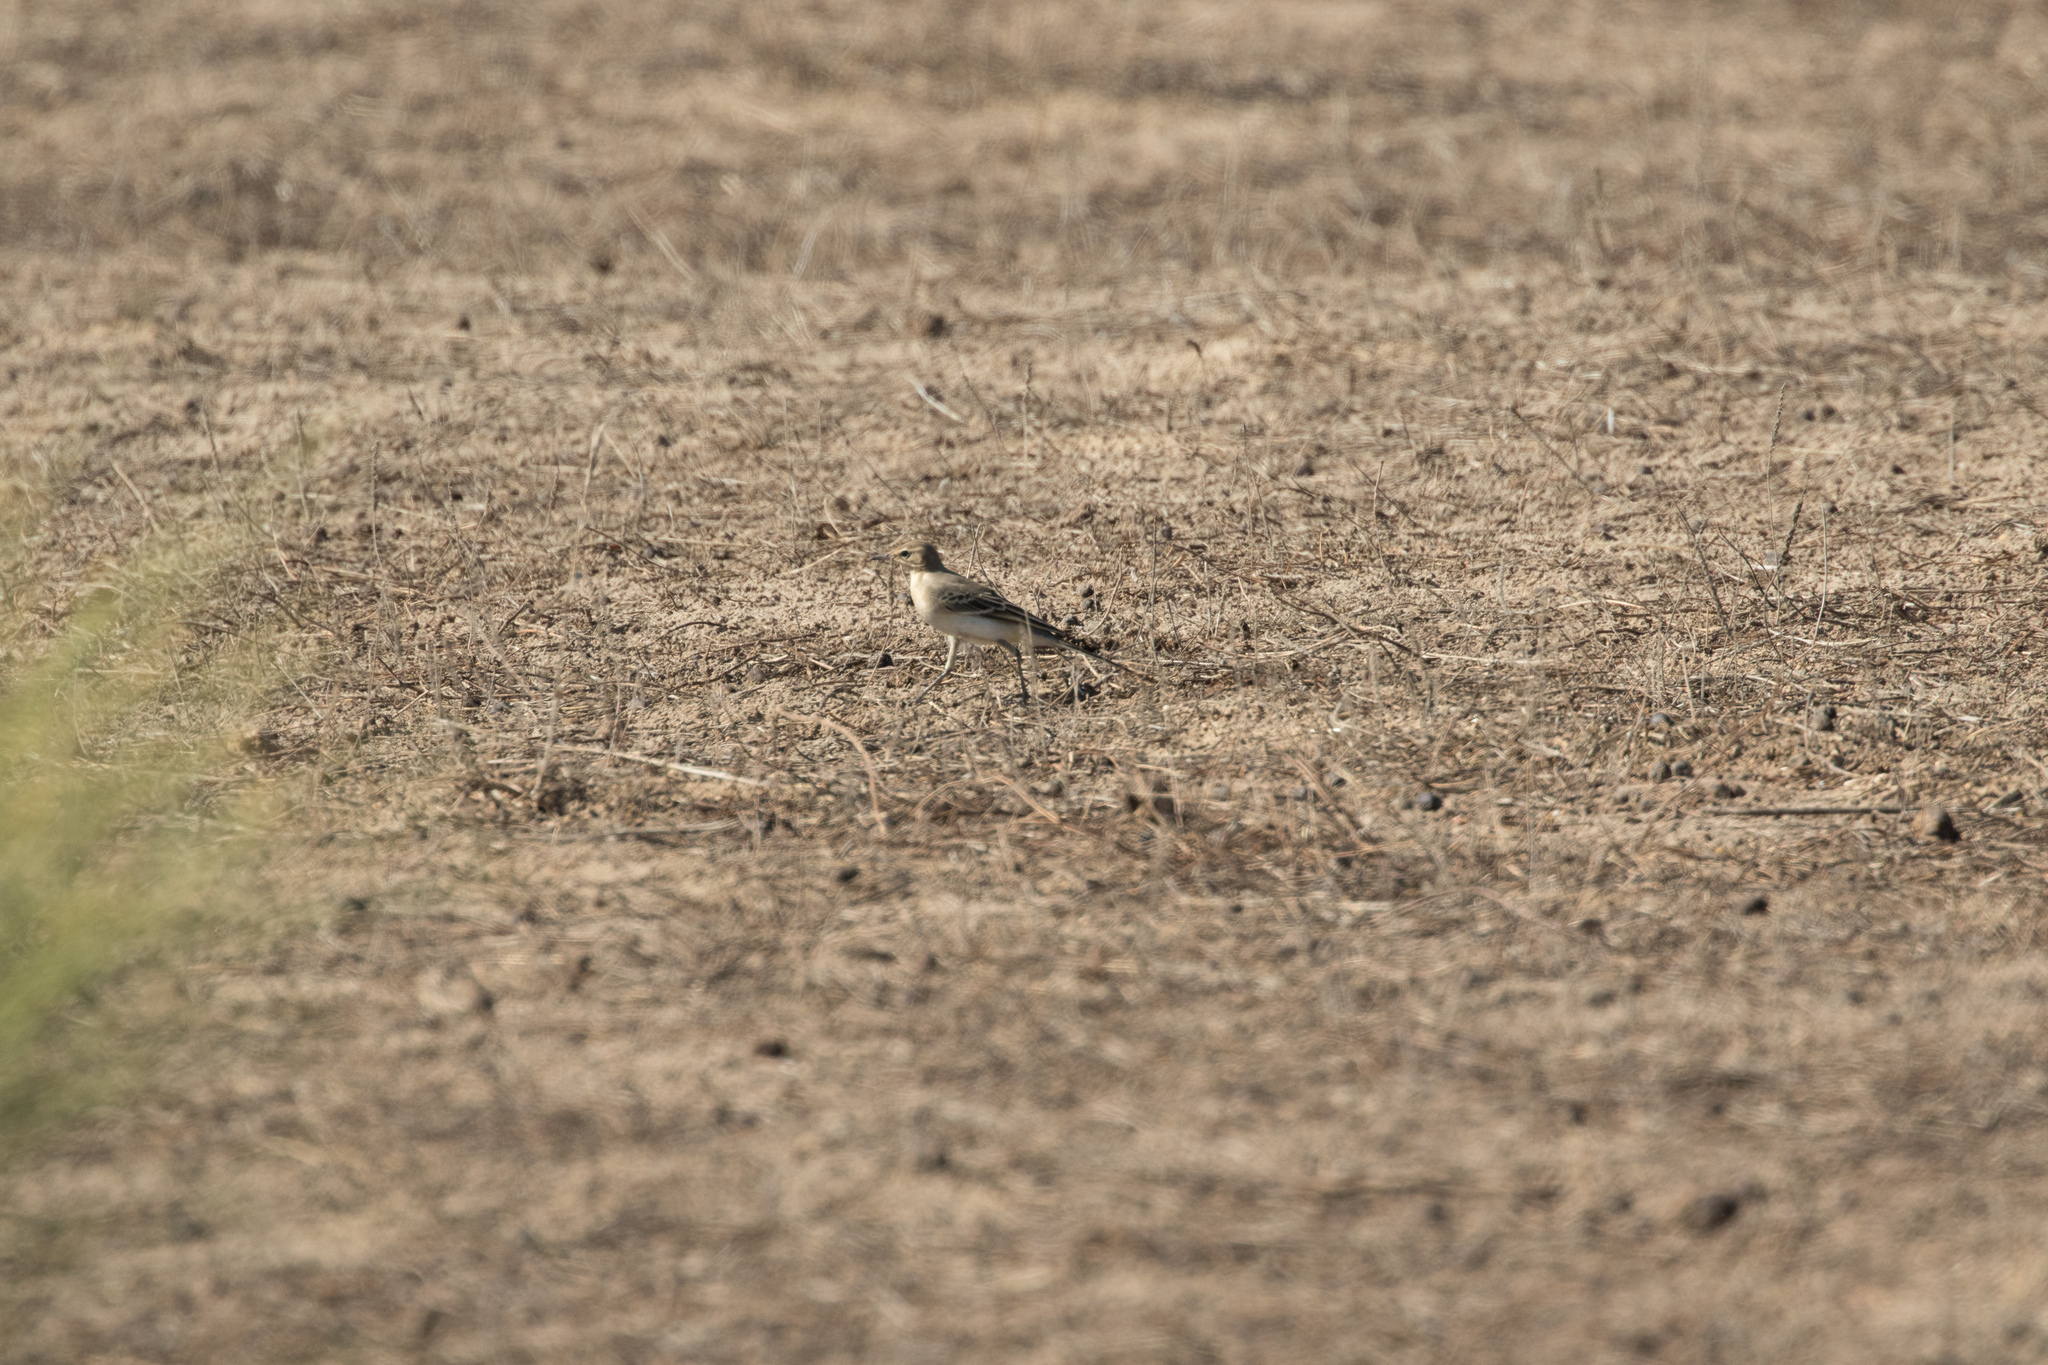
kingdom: Animalia
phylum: Chordata
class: Aves
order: Passeriformes
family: Motacillidae
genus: Motacilla
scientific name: Motacilla flava
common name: Western yellow wagtail
